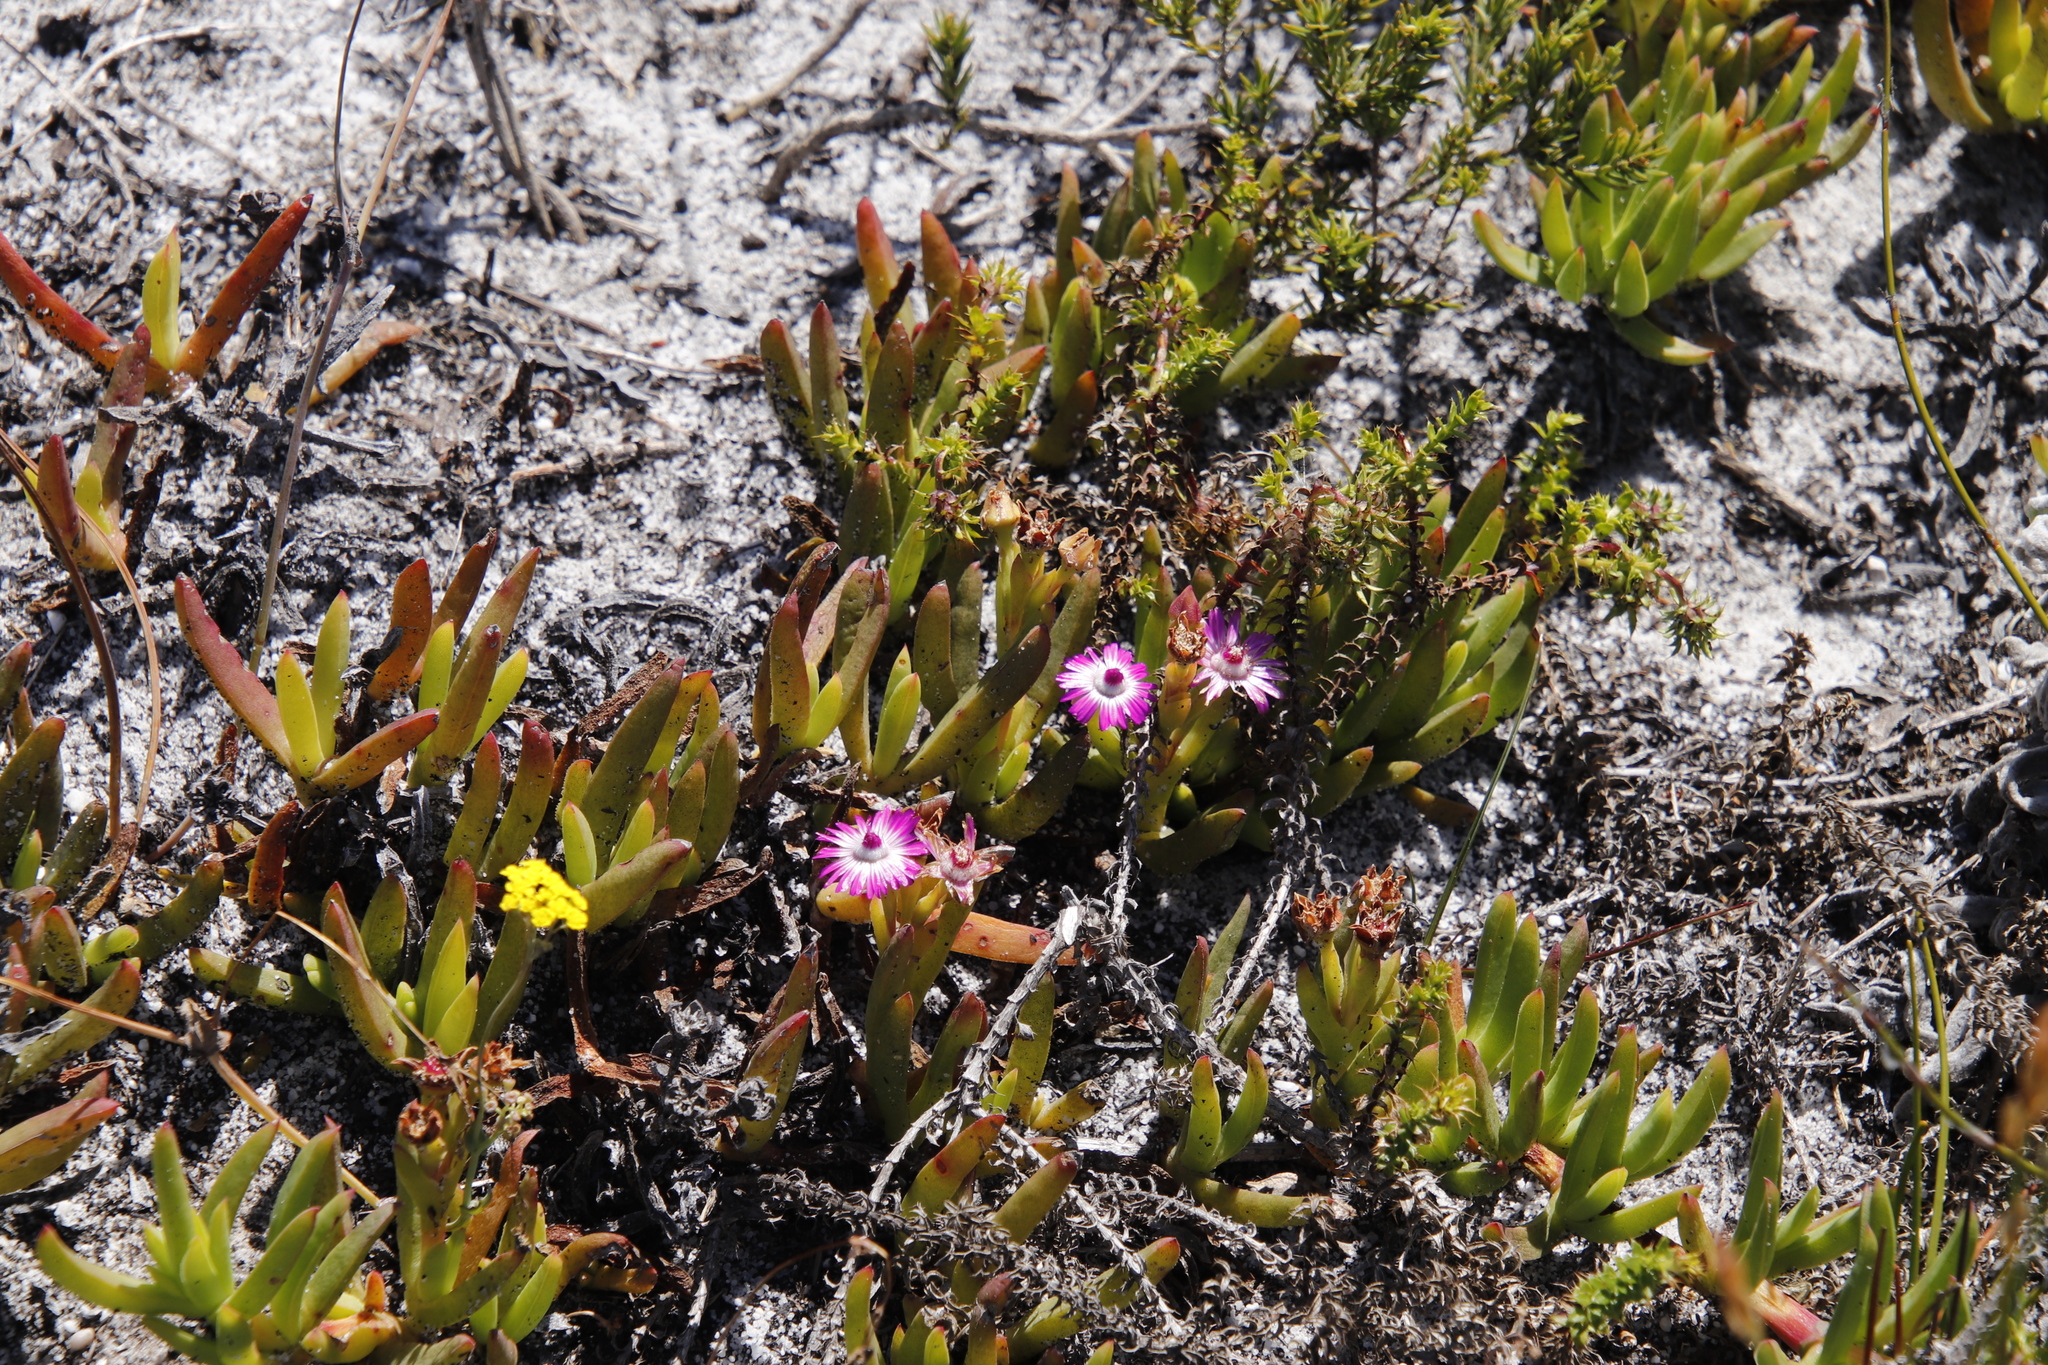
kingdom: Plantae
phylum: Tracheophyta
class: Magnoliopsida
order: Caryophyllales
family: Aizoaceae
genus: Ruschia
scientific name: Ruschia sarmentosa
